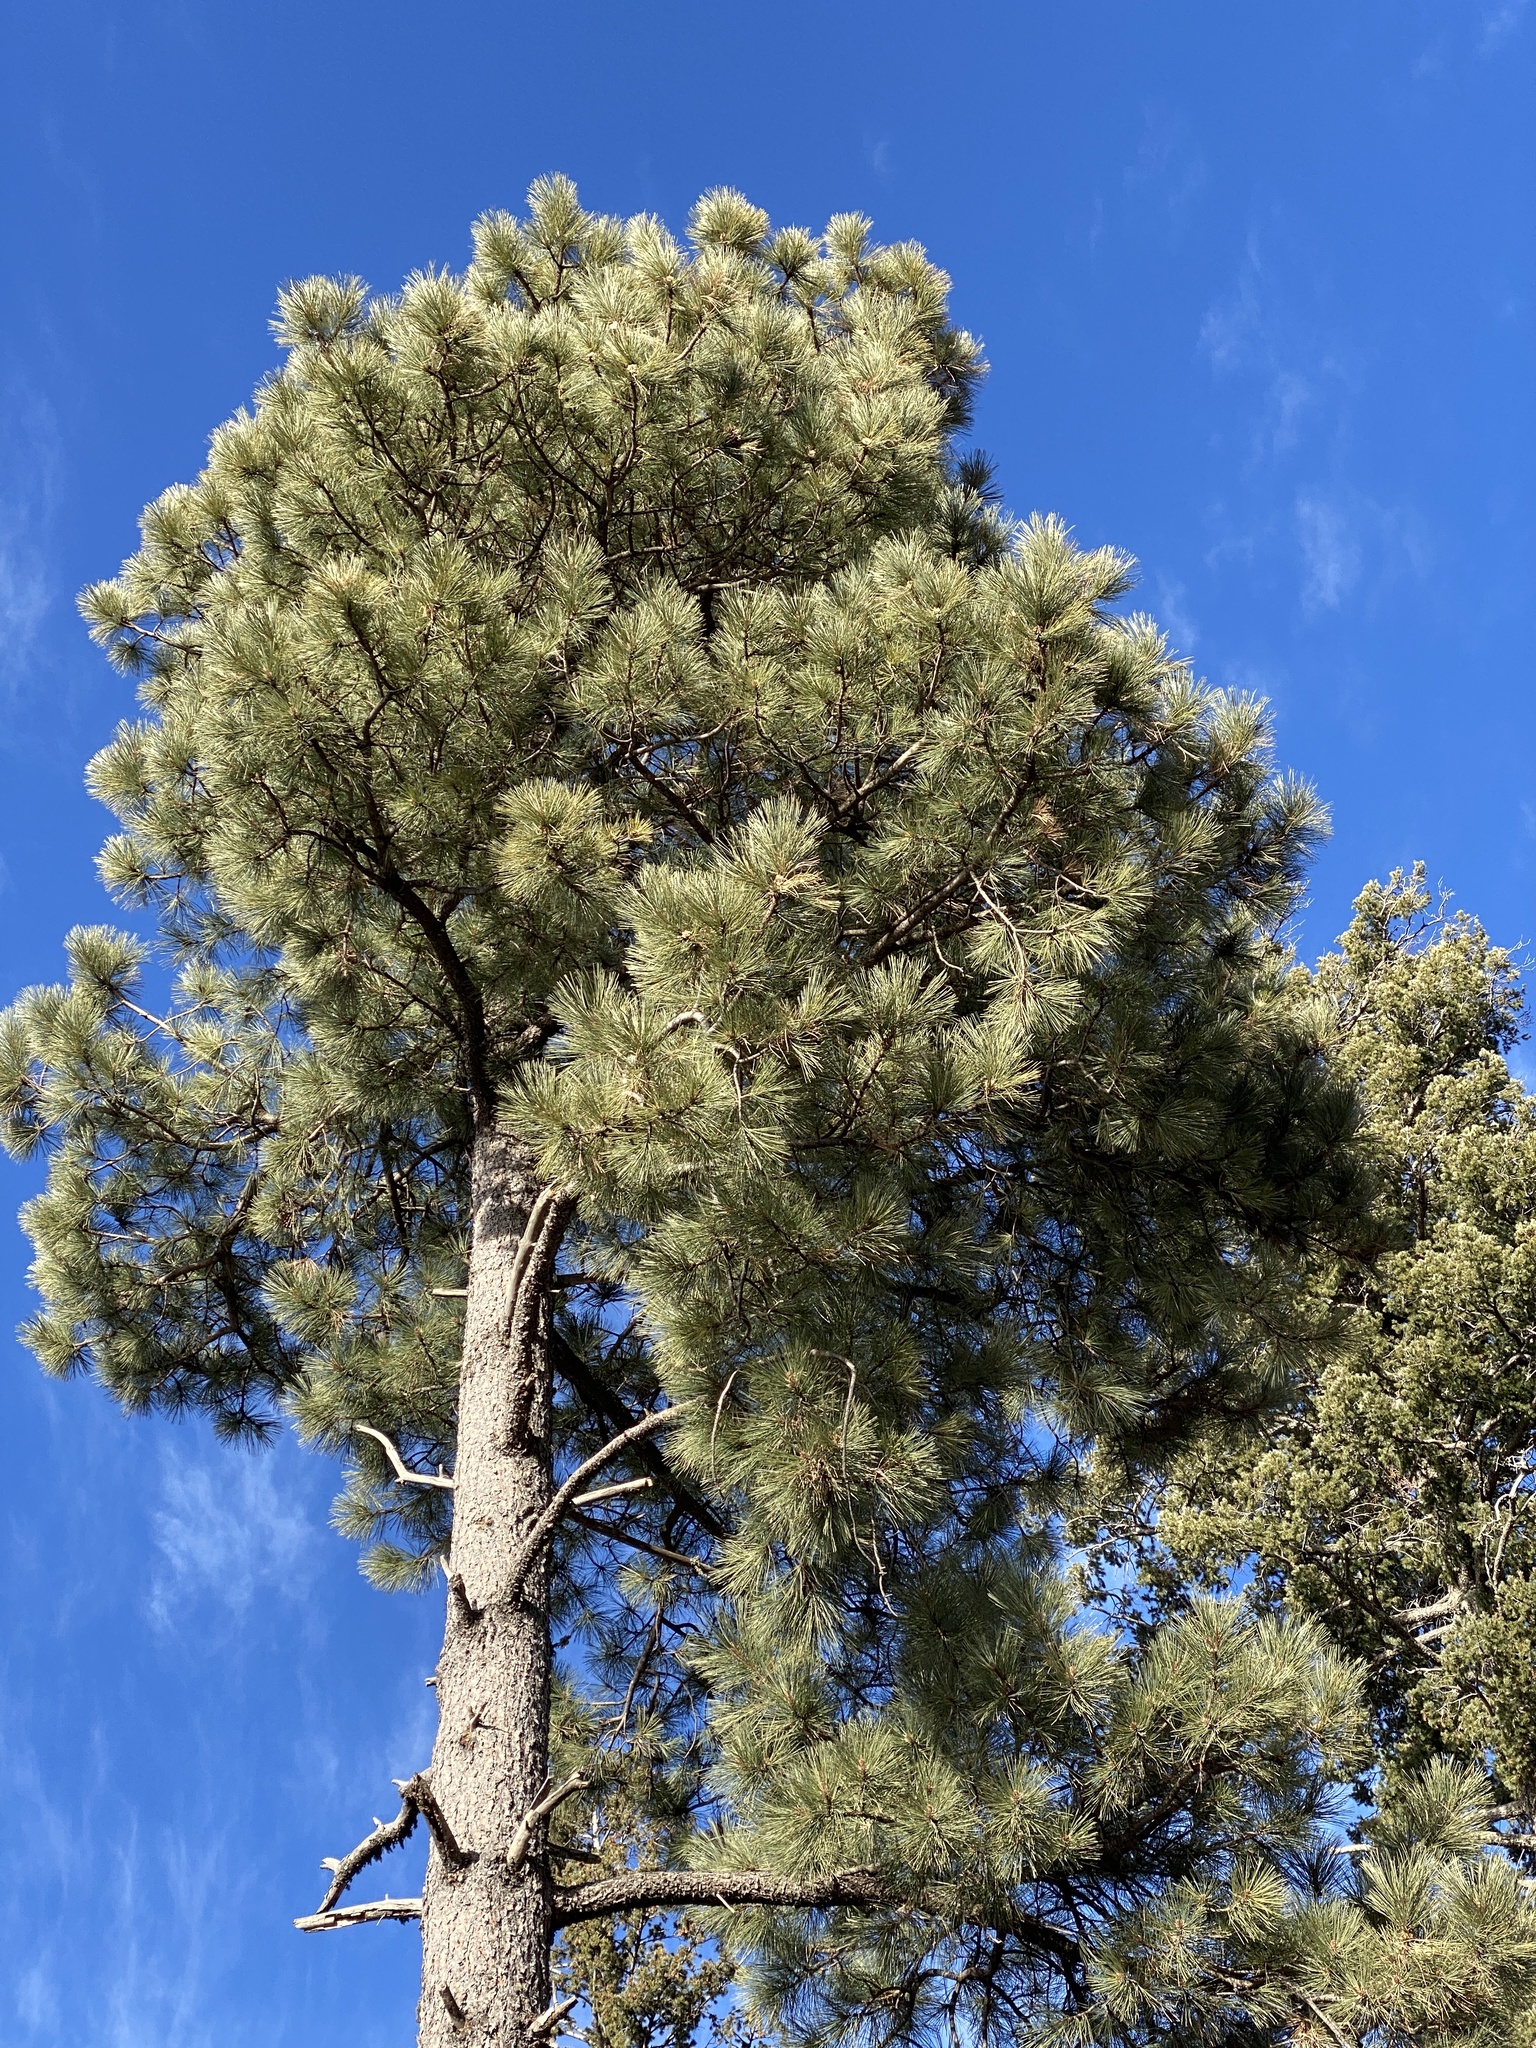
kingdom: Plantae
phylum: Tracheophyta
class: Pinopsida
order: Pinales
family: Pinaceae
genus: Pinus
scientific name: Pinus ponderosa
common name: Western yellow-pine
